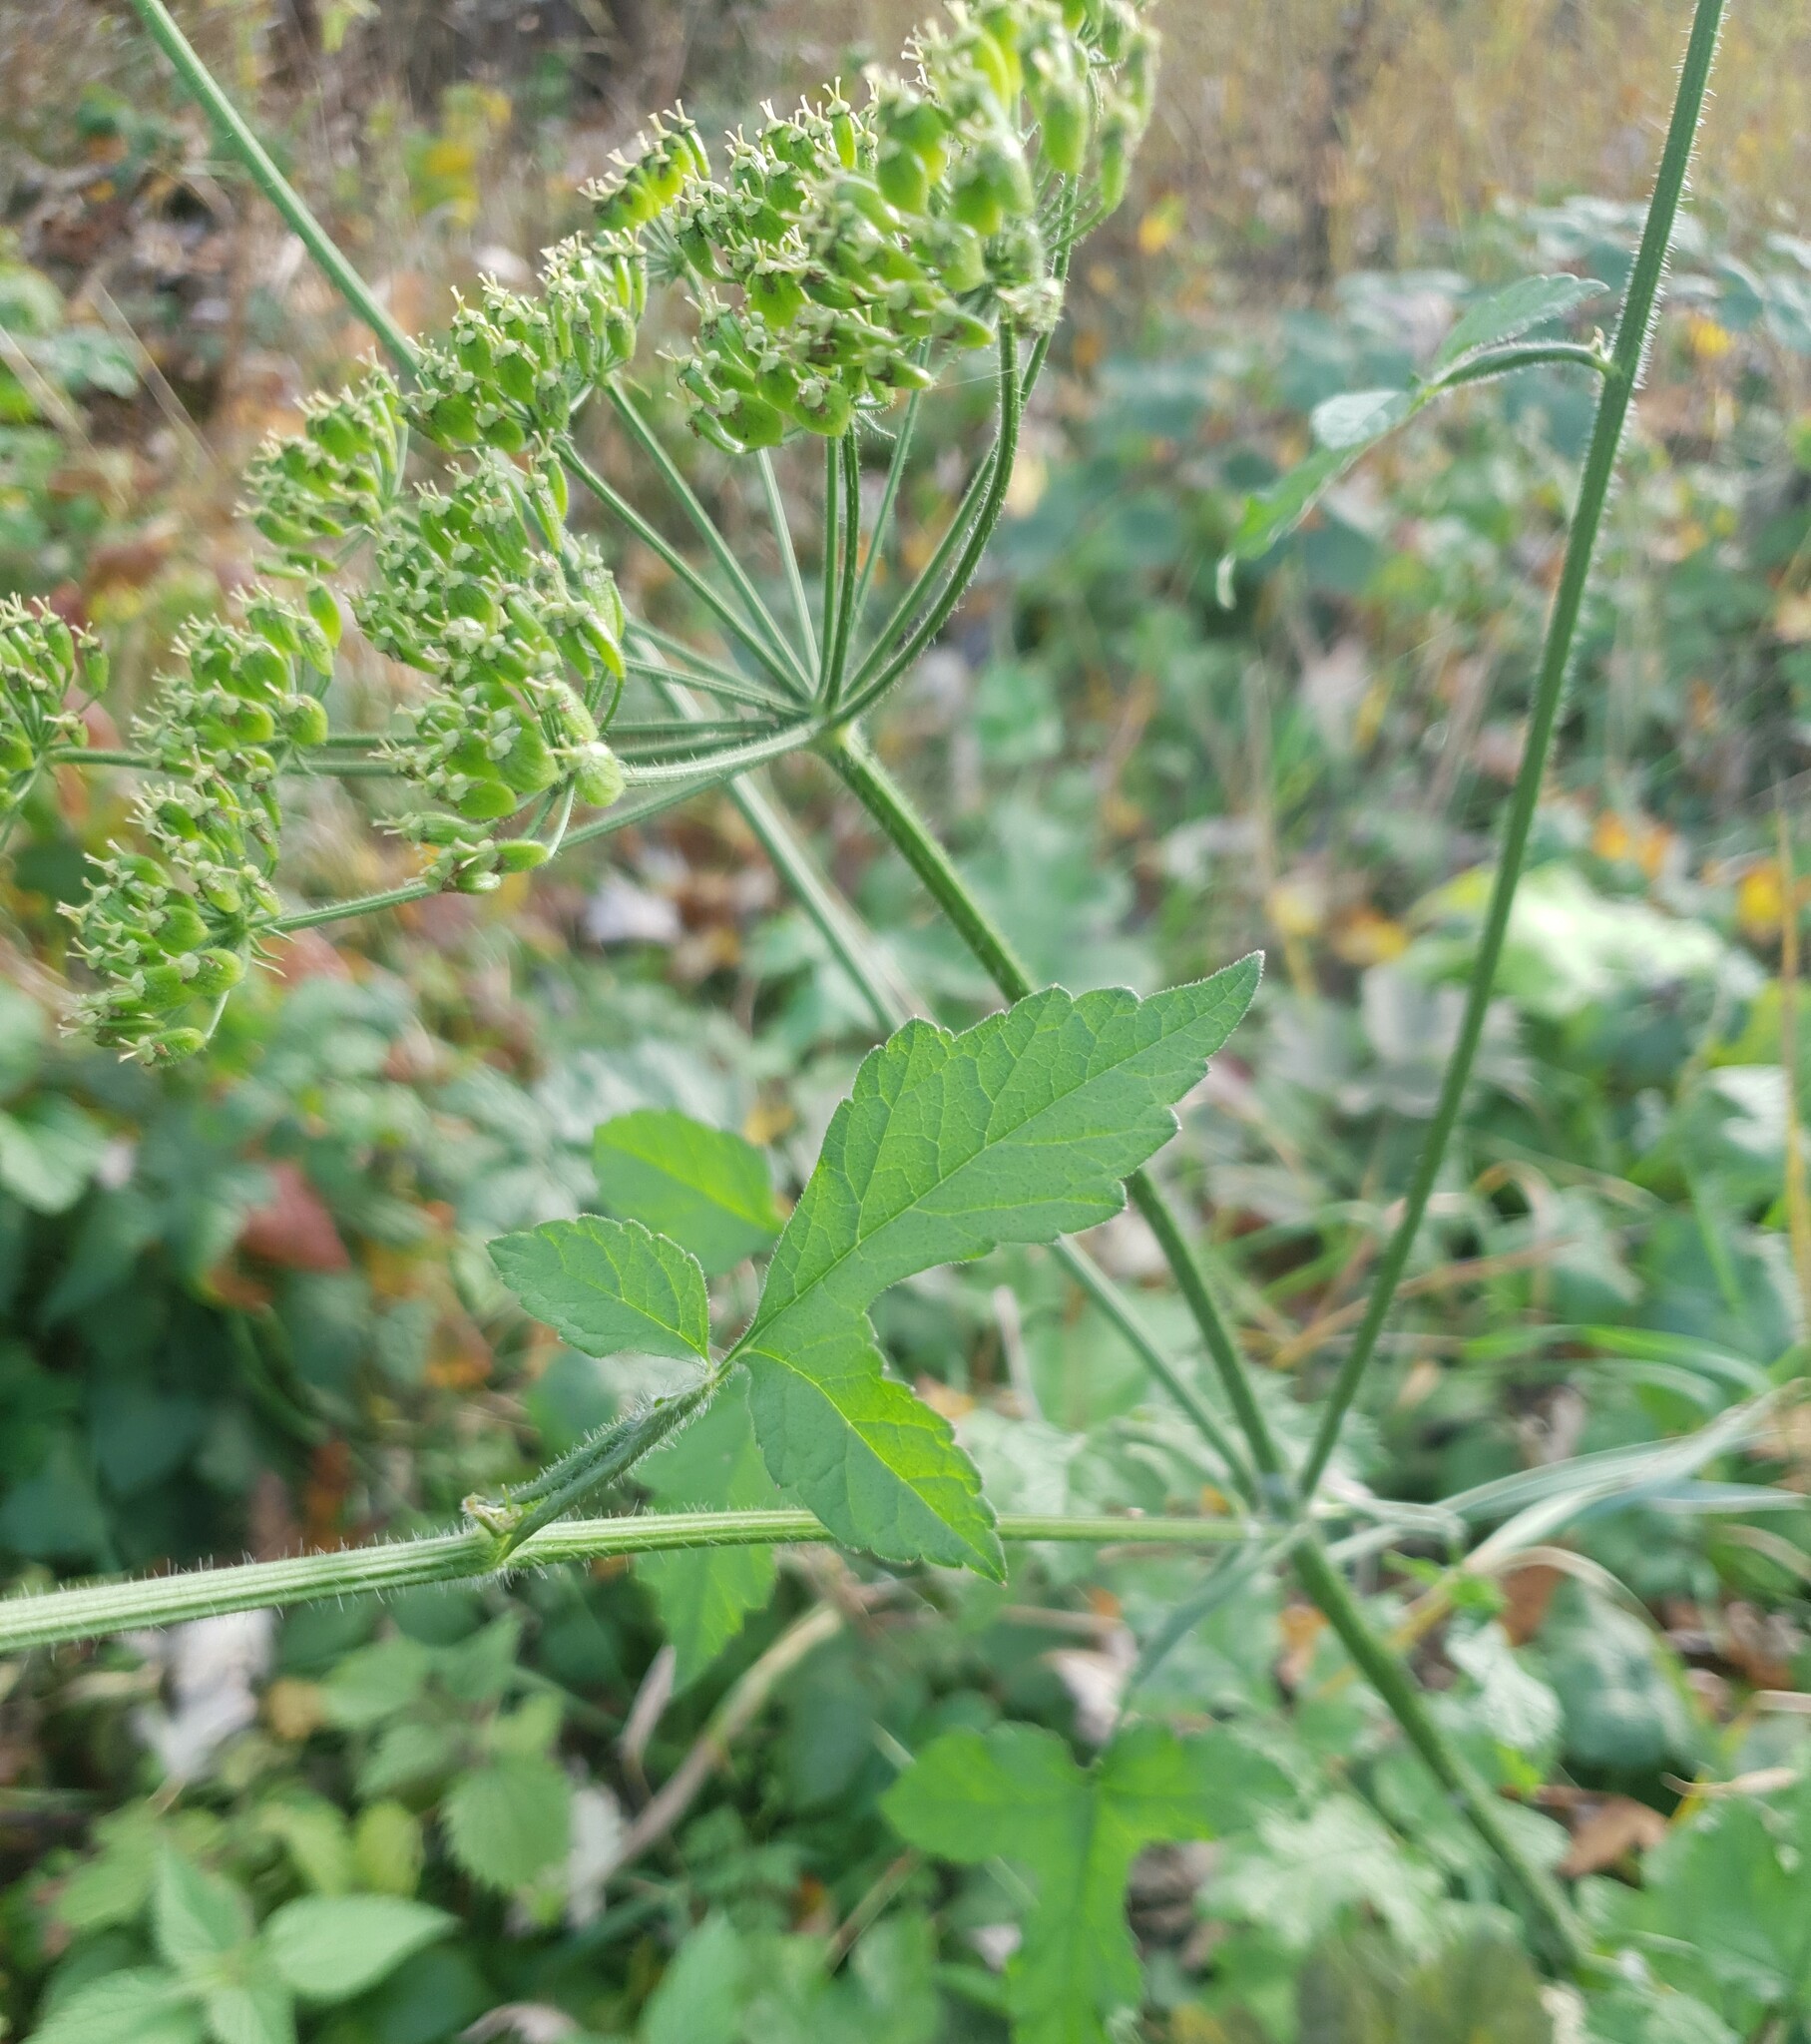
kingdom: Plantae
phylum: Tracheophyta
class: Magnoliopsida
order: Apiales
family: Apiaceae
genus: Heracleum
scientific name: Heracleum sphondylium
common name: Hogweed
